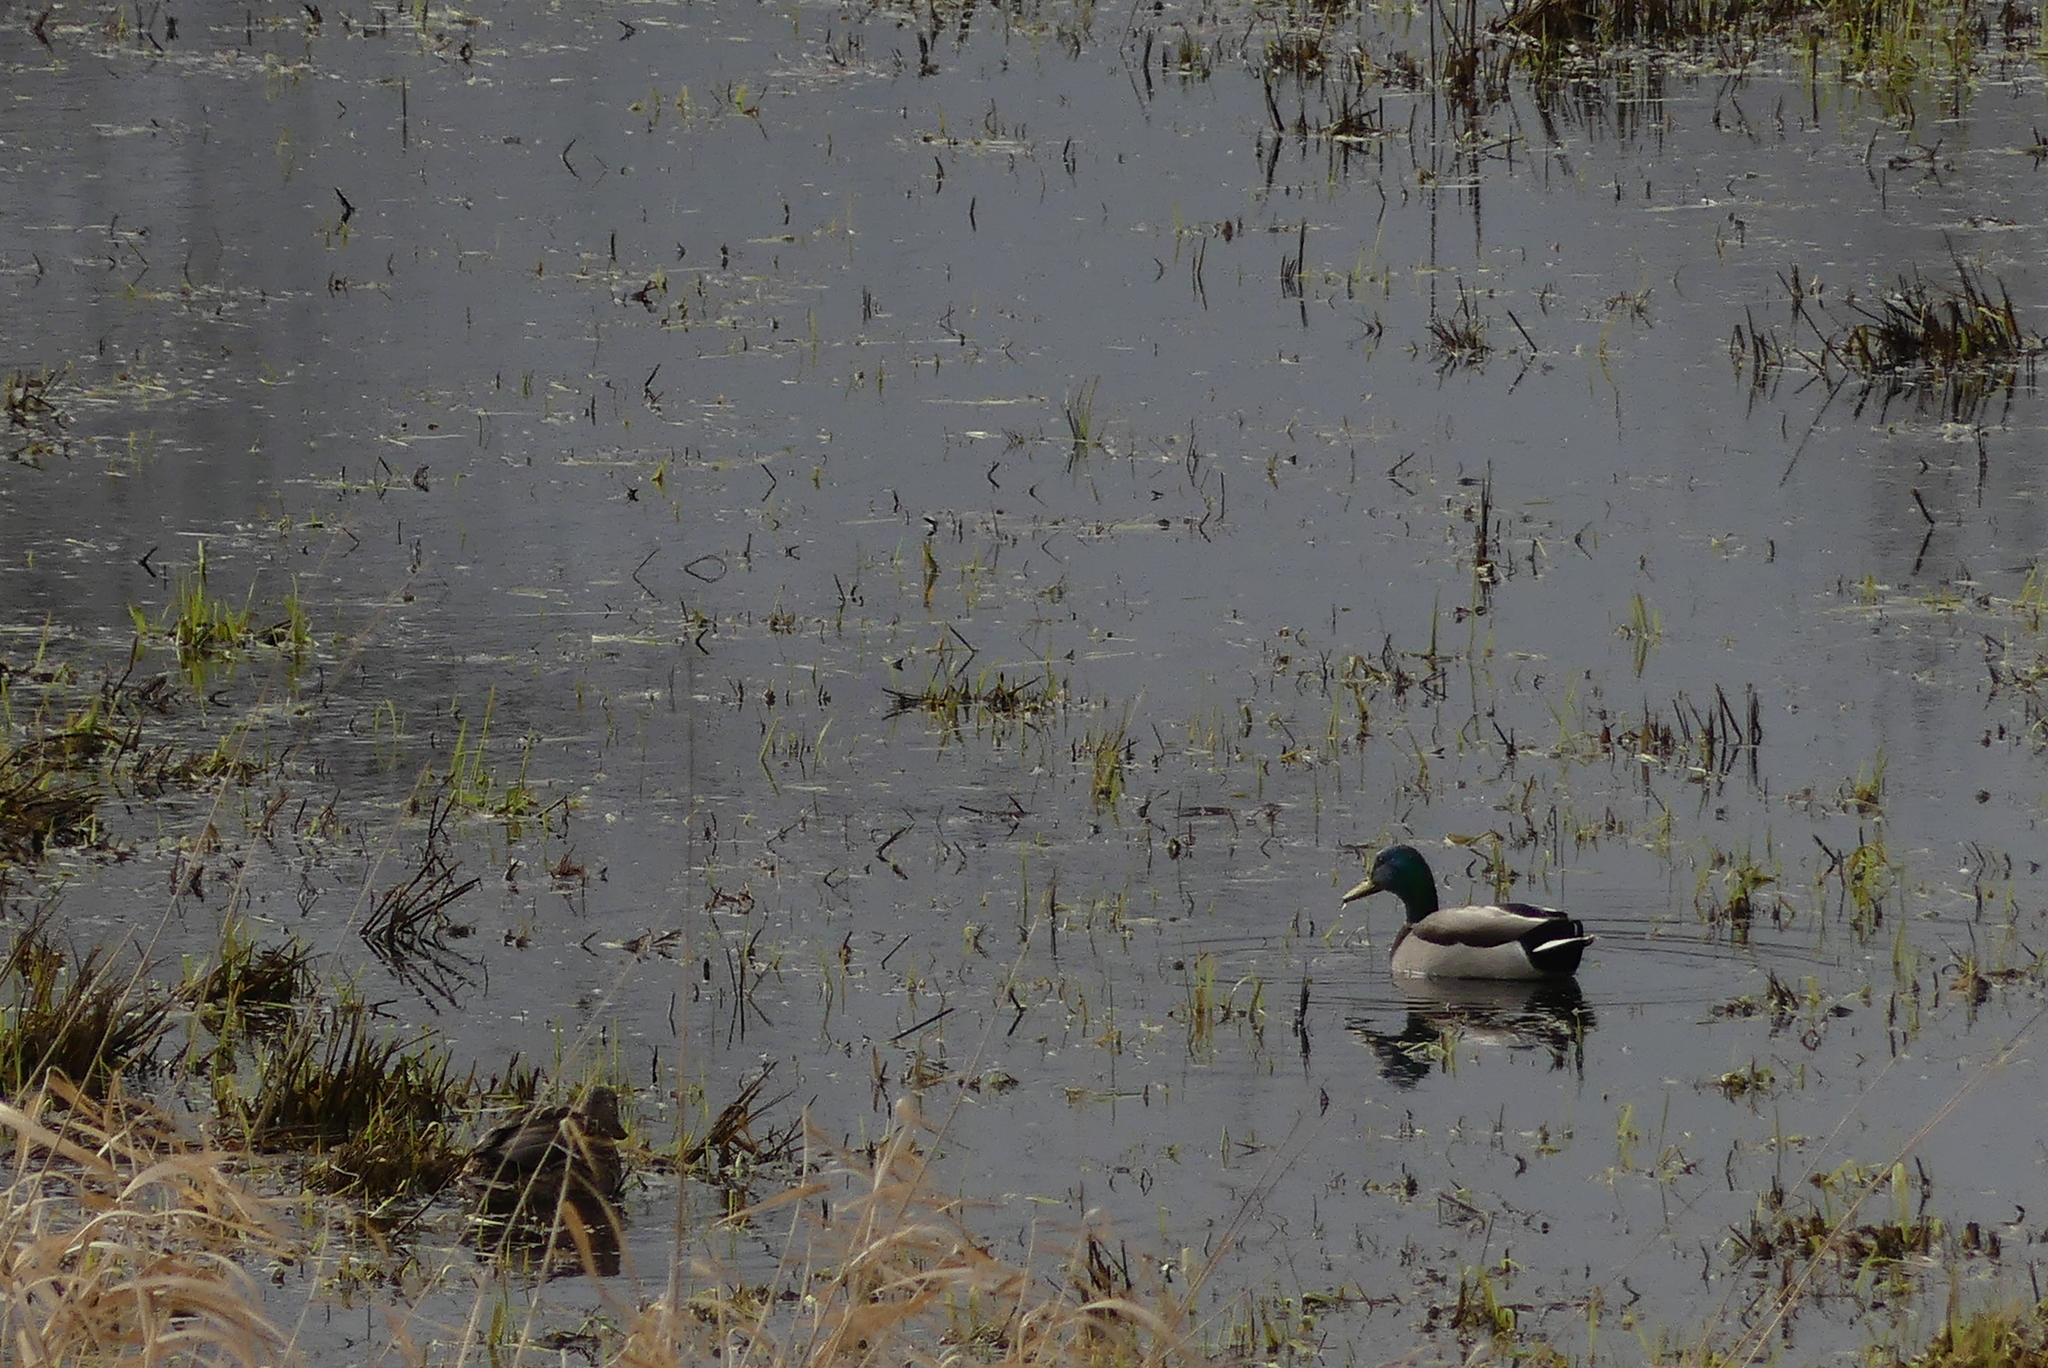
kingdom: Animalia
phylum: Chordata
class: Aves
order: Anseriformes
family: Anatidae
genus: Anas
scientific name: Anas platyrhynchos
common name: Mallard
